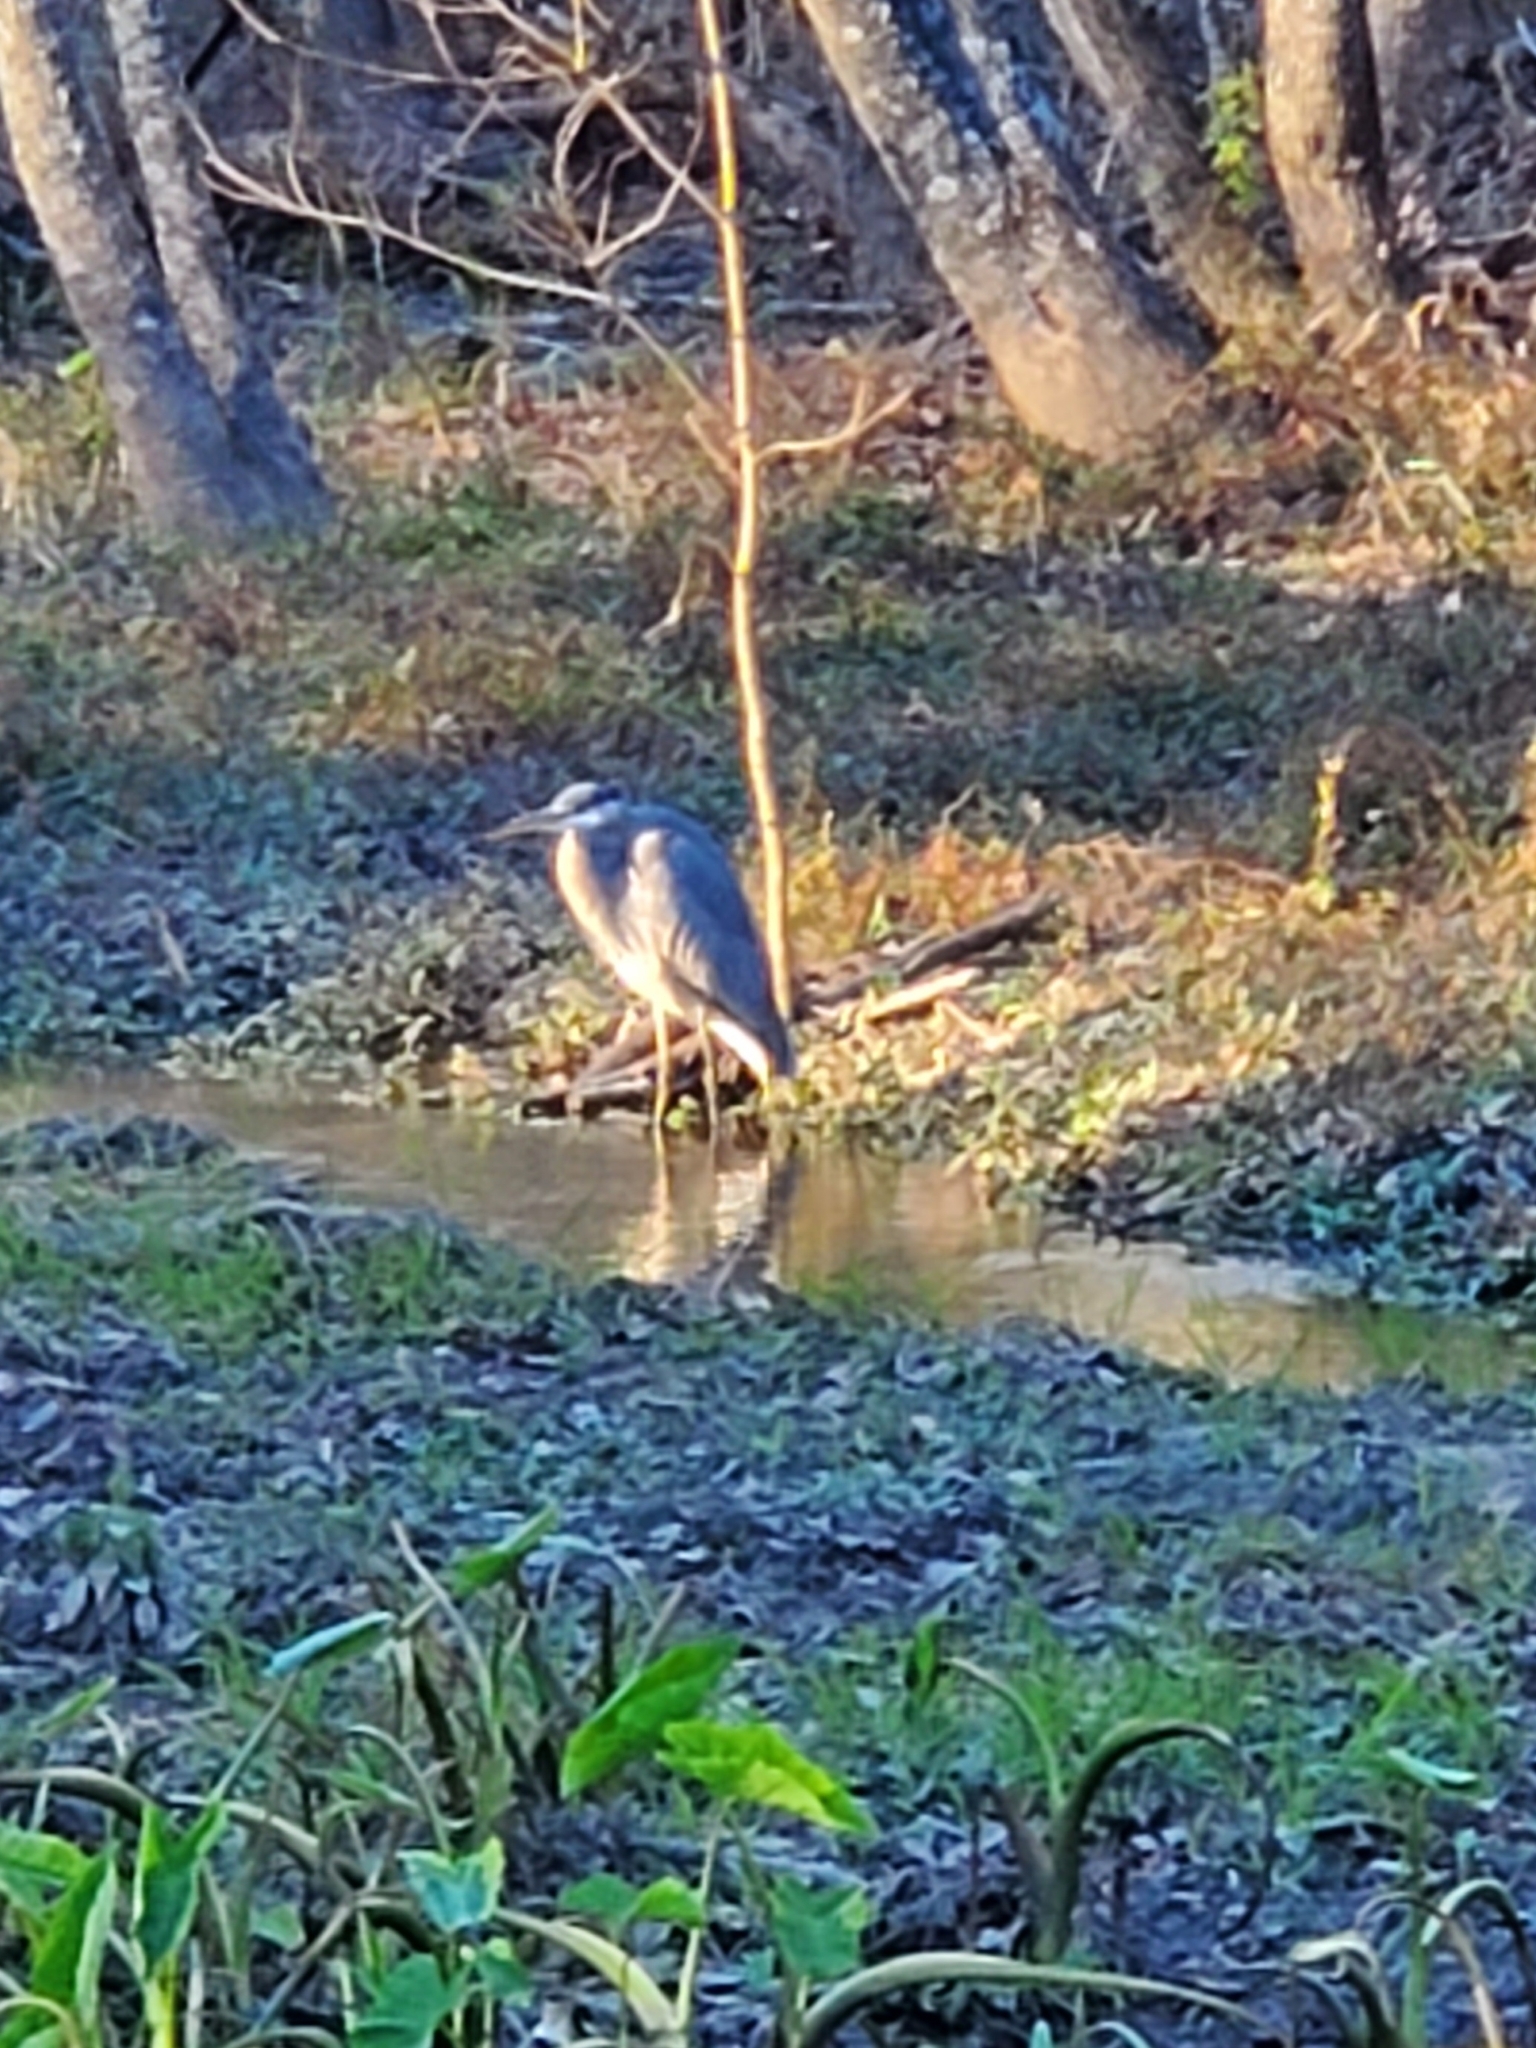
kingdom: Animalia
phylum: Chordata
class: Aves
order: Pelecaniformes
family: Ardeidae
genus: Ardea
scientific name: Ardea herodias
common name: Great blue heron
